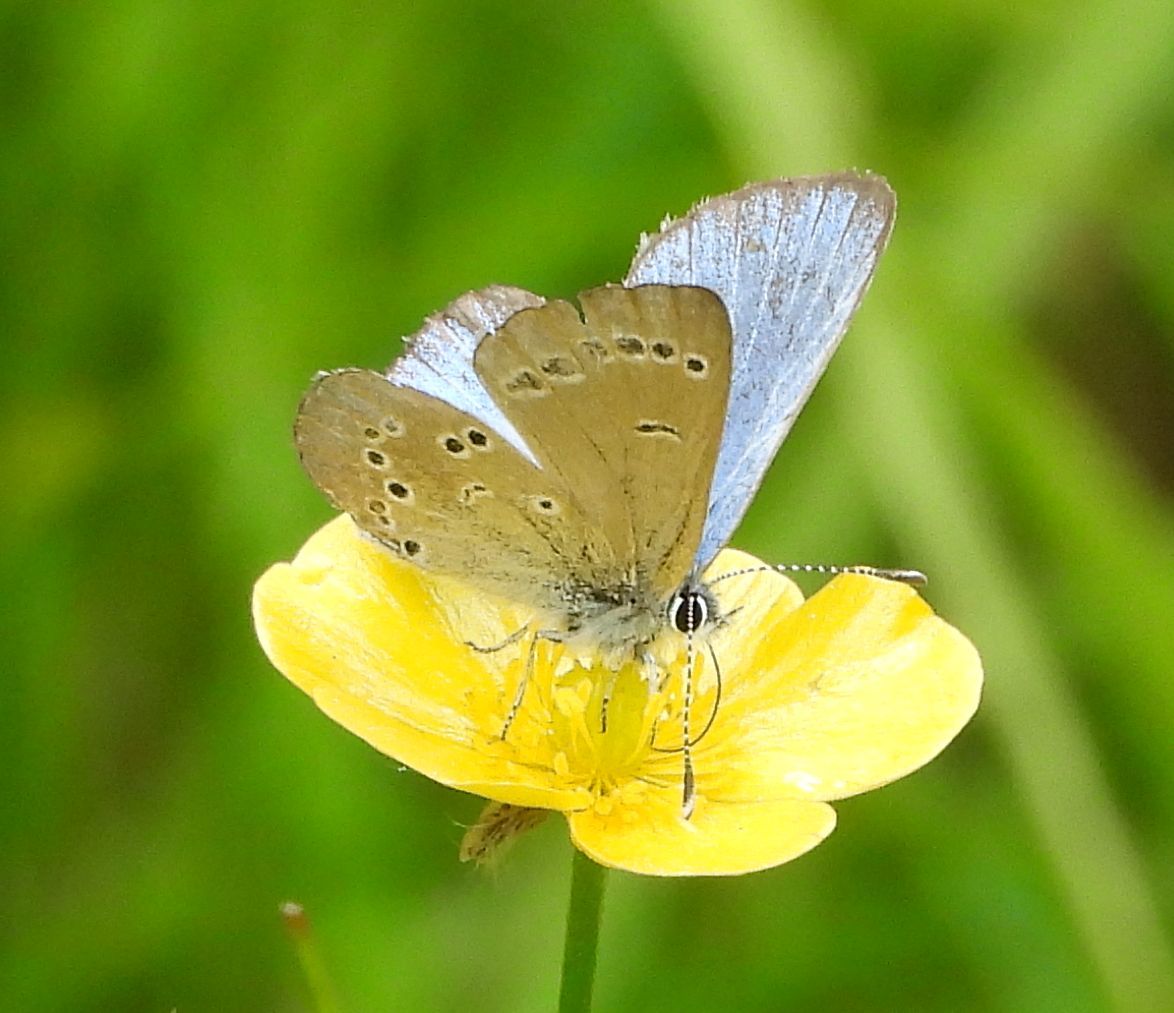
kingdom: Animalia
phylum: Arthropoda
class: Insecta
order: Lepidoptera
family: Lycaenidae
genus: Glaucopsyche
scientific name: Glaucopsyche lygdamus
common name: Silvery blue
